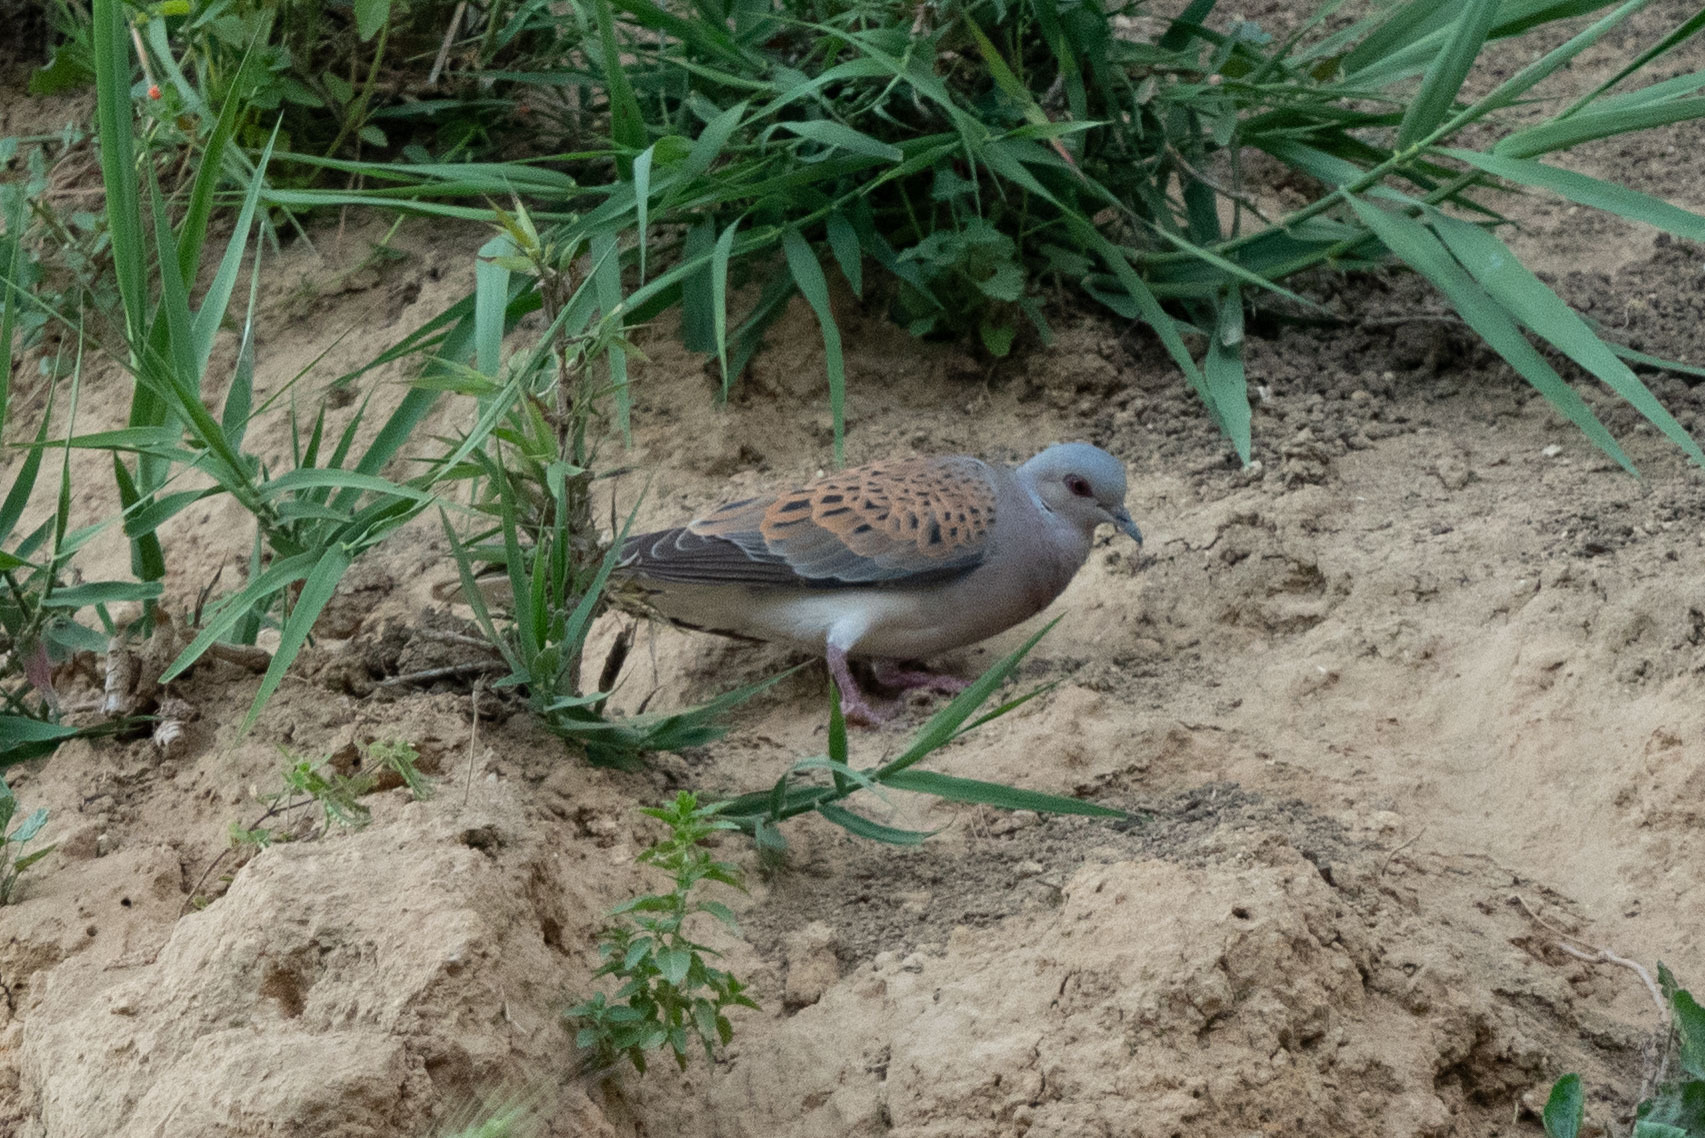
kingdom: Animalia
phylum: Chordata
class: Aves
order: Columbiformes
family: Columbidae
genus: Streptopelia
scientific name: Streptopelia turtur
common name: European turtle dove
